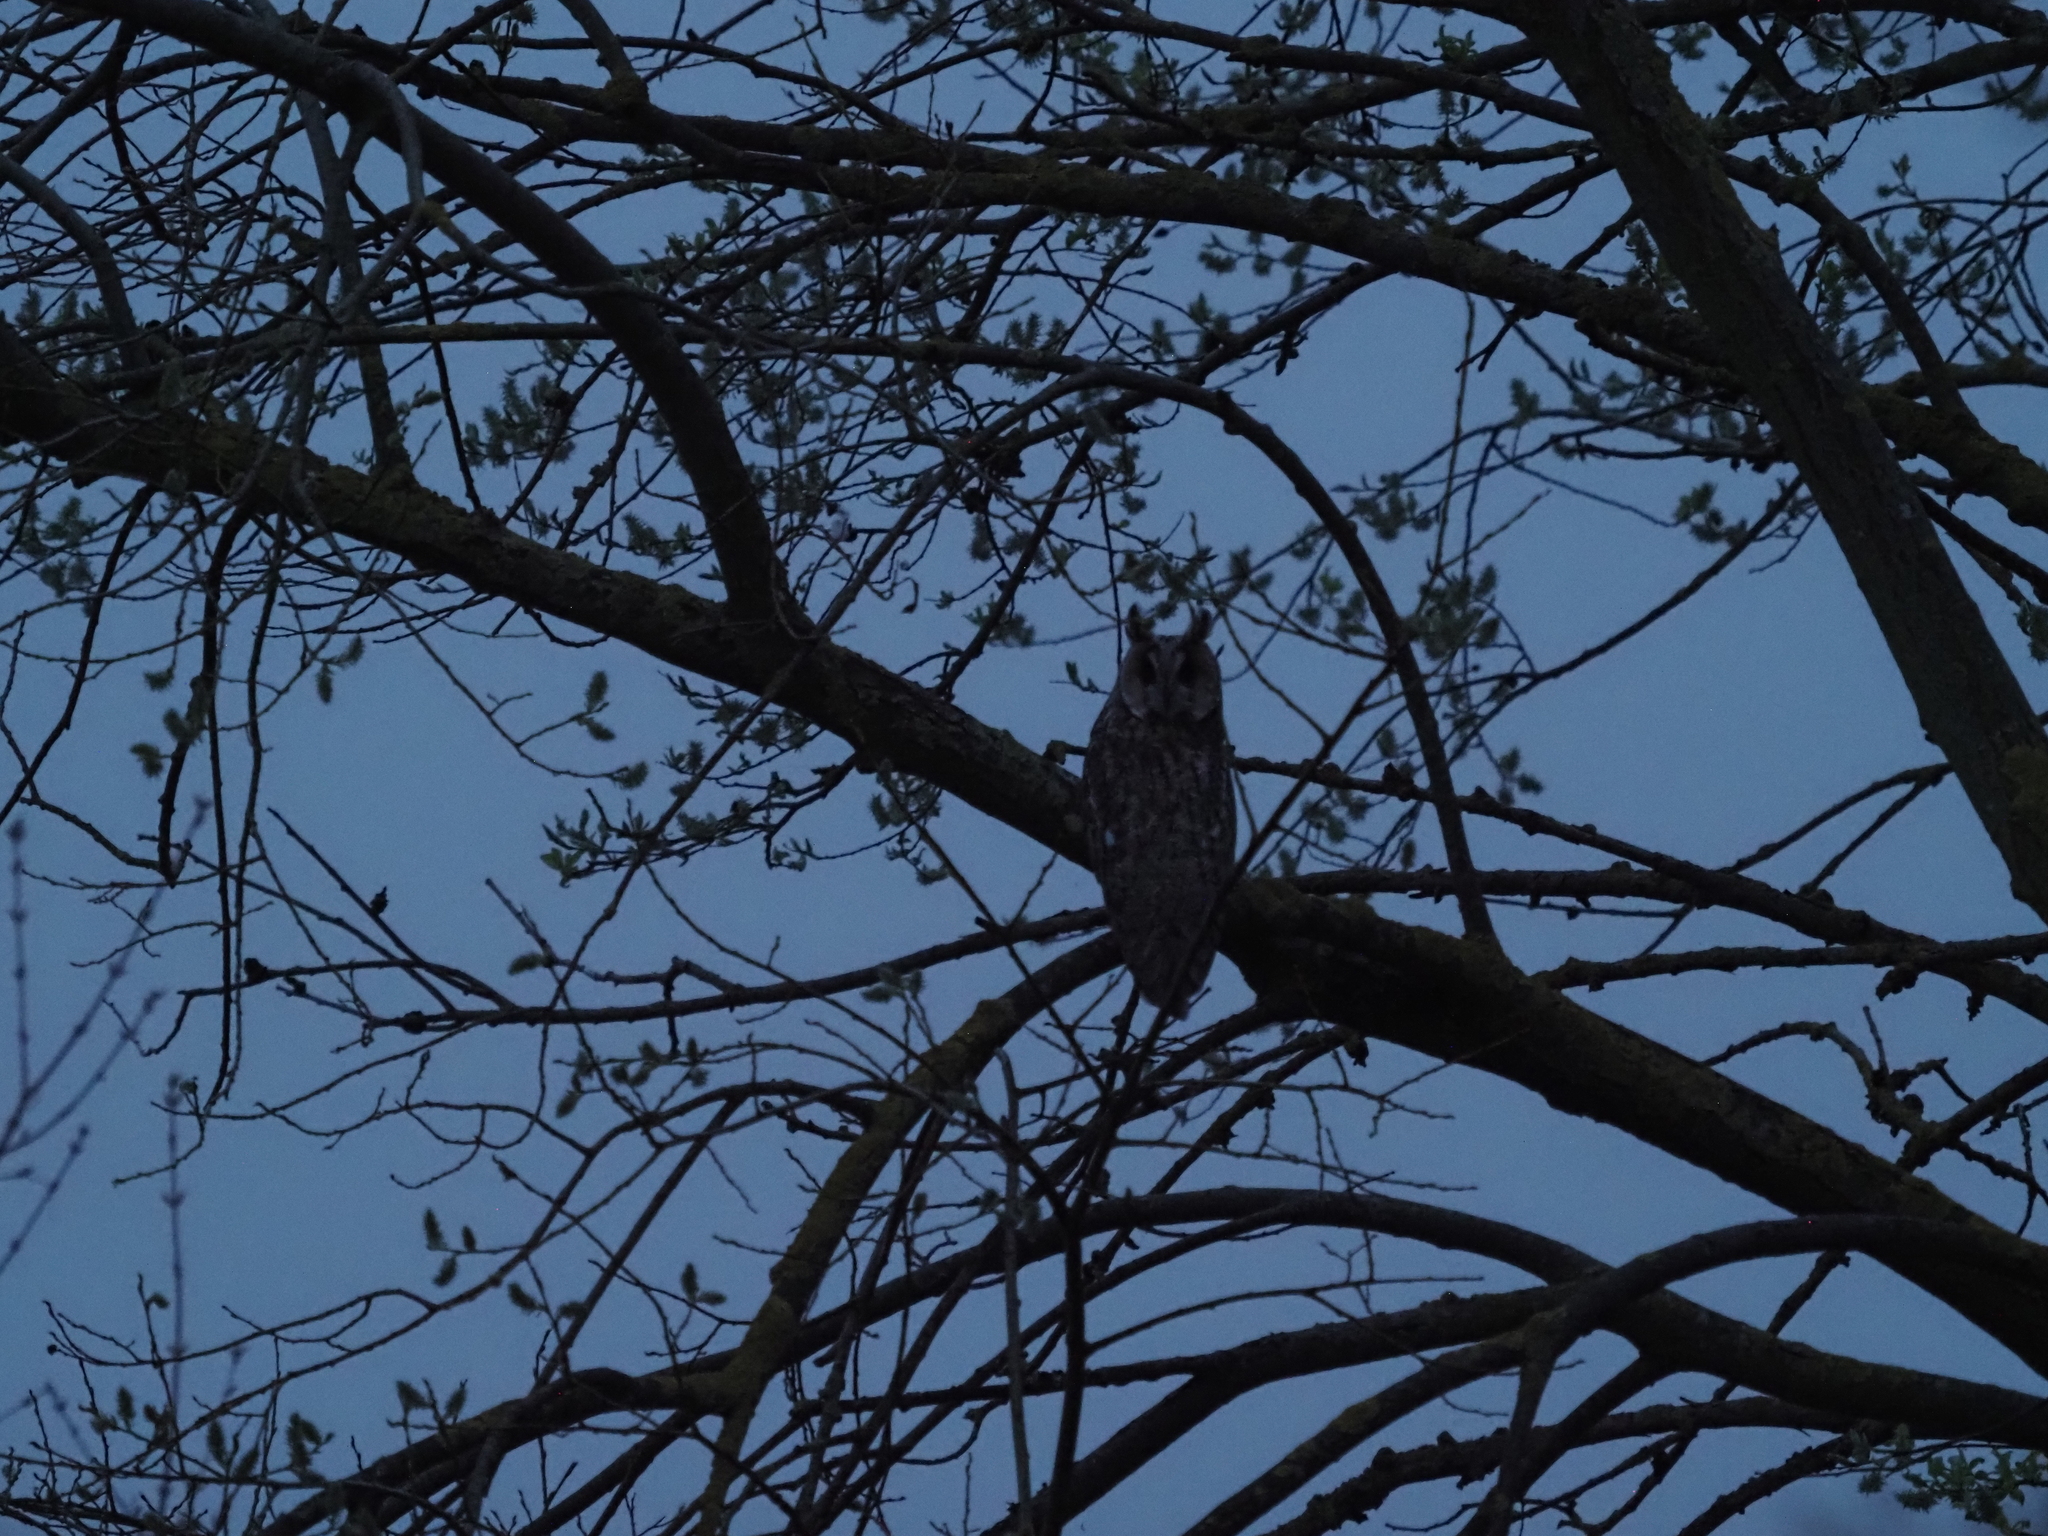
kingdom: Animalia
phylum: Chordata
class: Aves
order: Strigiformes
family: Strigidae
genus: Asio
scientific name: Asio otus
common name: Long-eared owl
